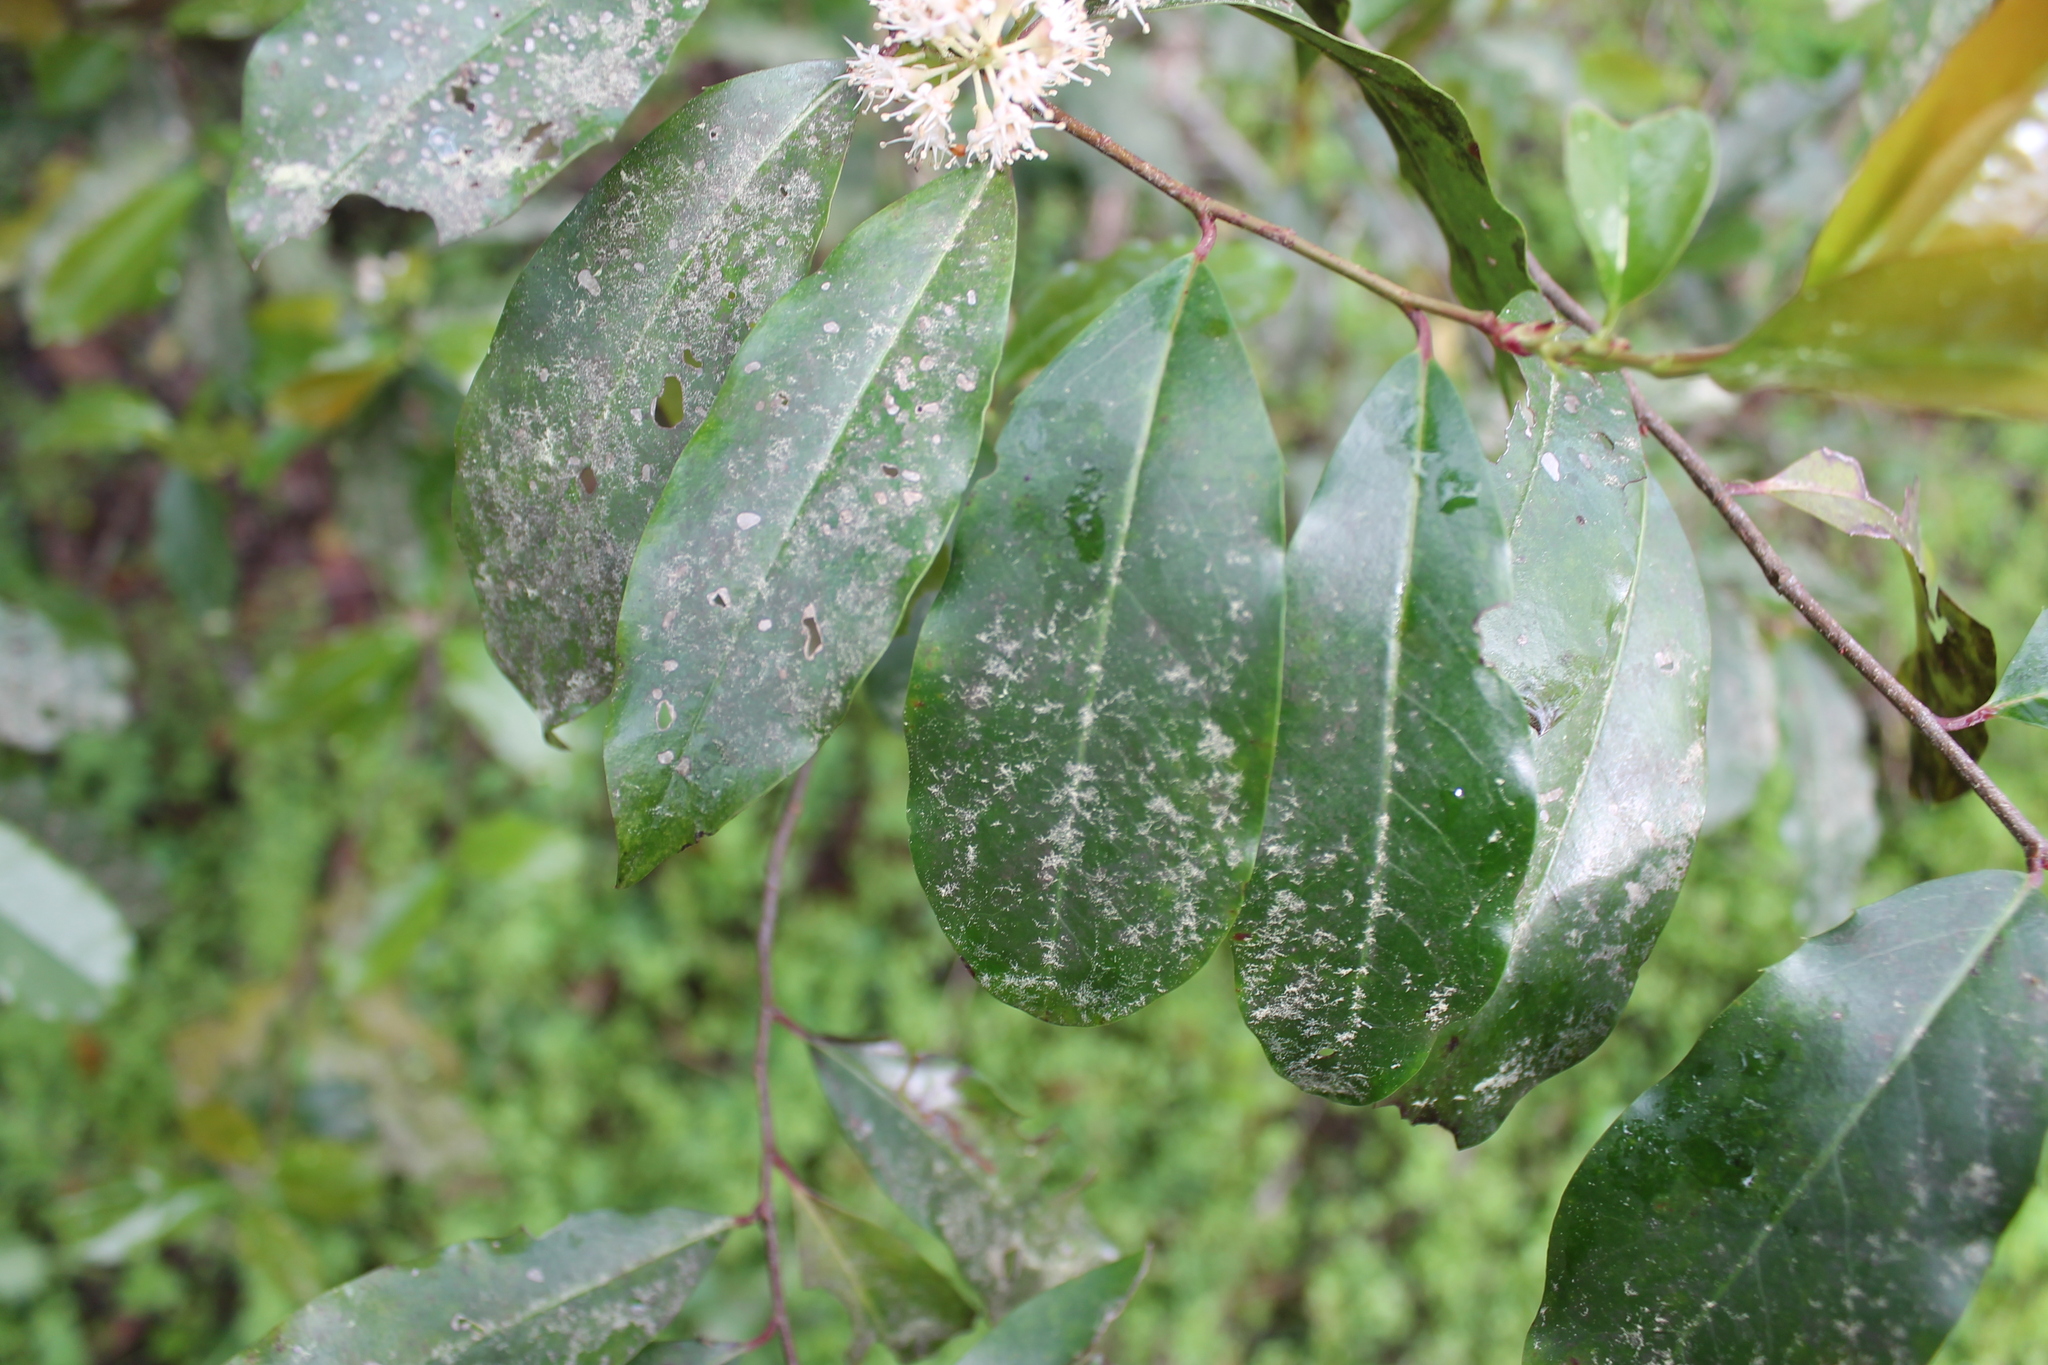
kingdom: Plantae
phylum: Tracheophyta
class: Magnoliopsida
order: Rosales
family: Rosaceae
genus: Prunus
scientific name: Prunus caroliniana
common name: Carolina laurel cherry
